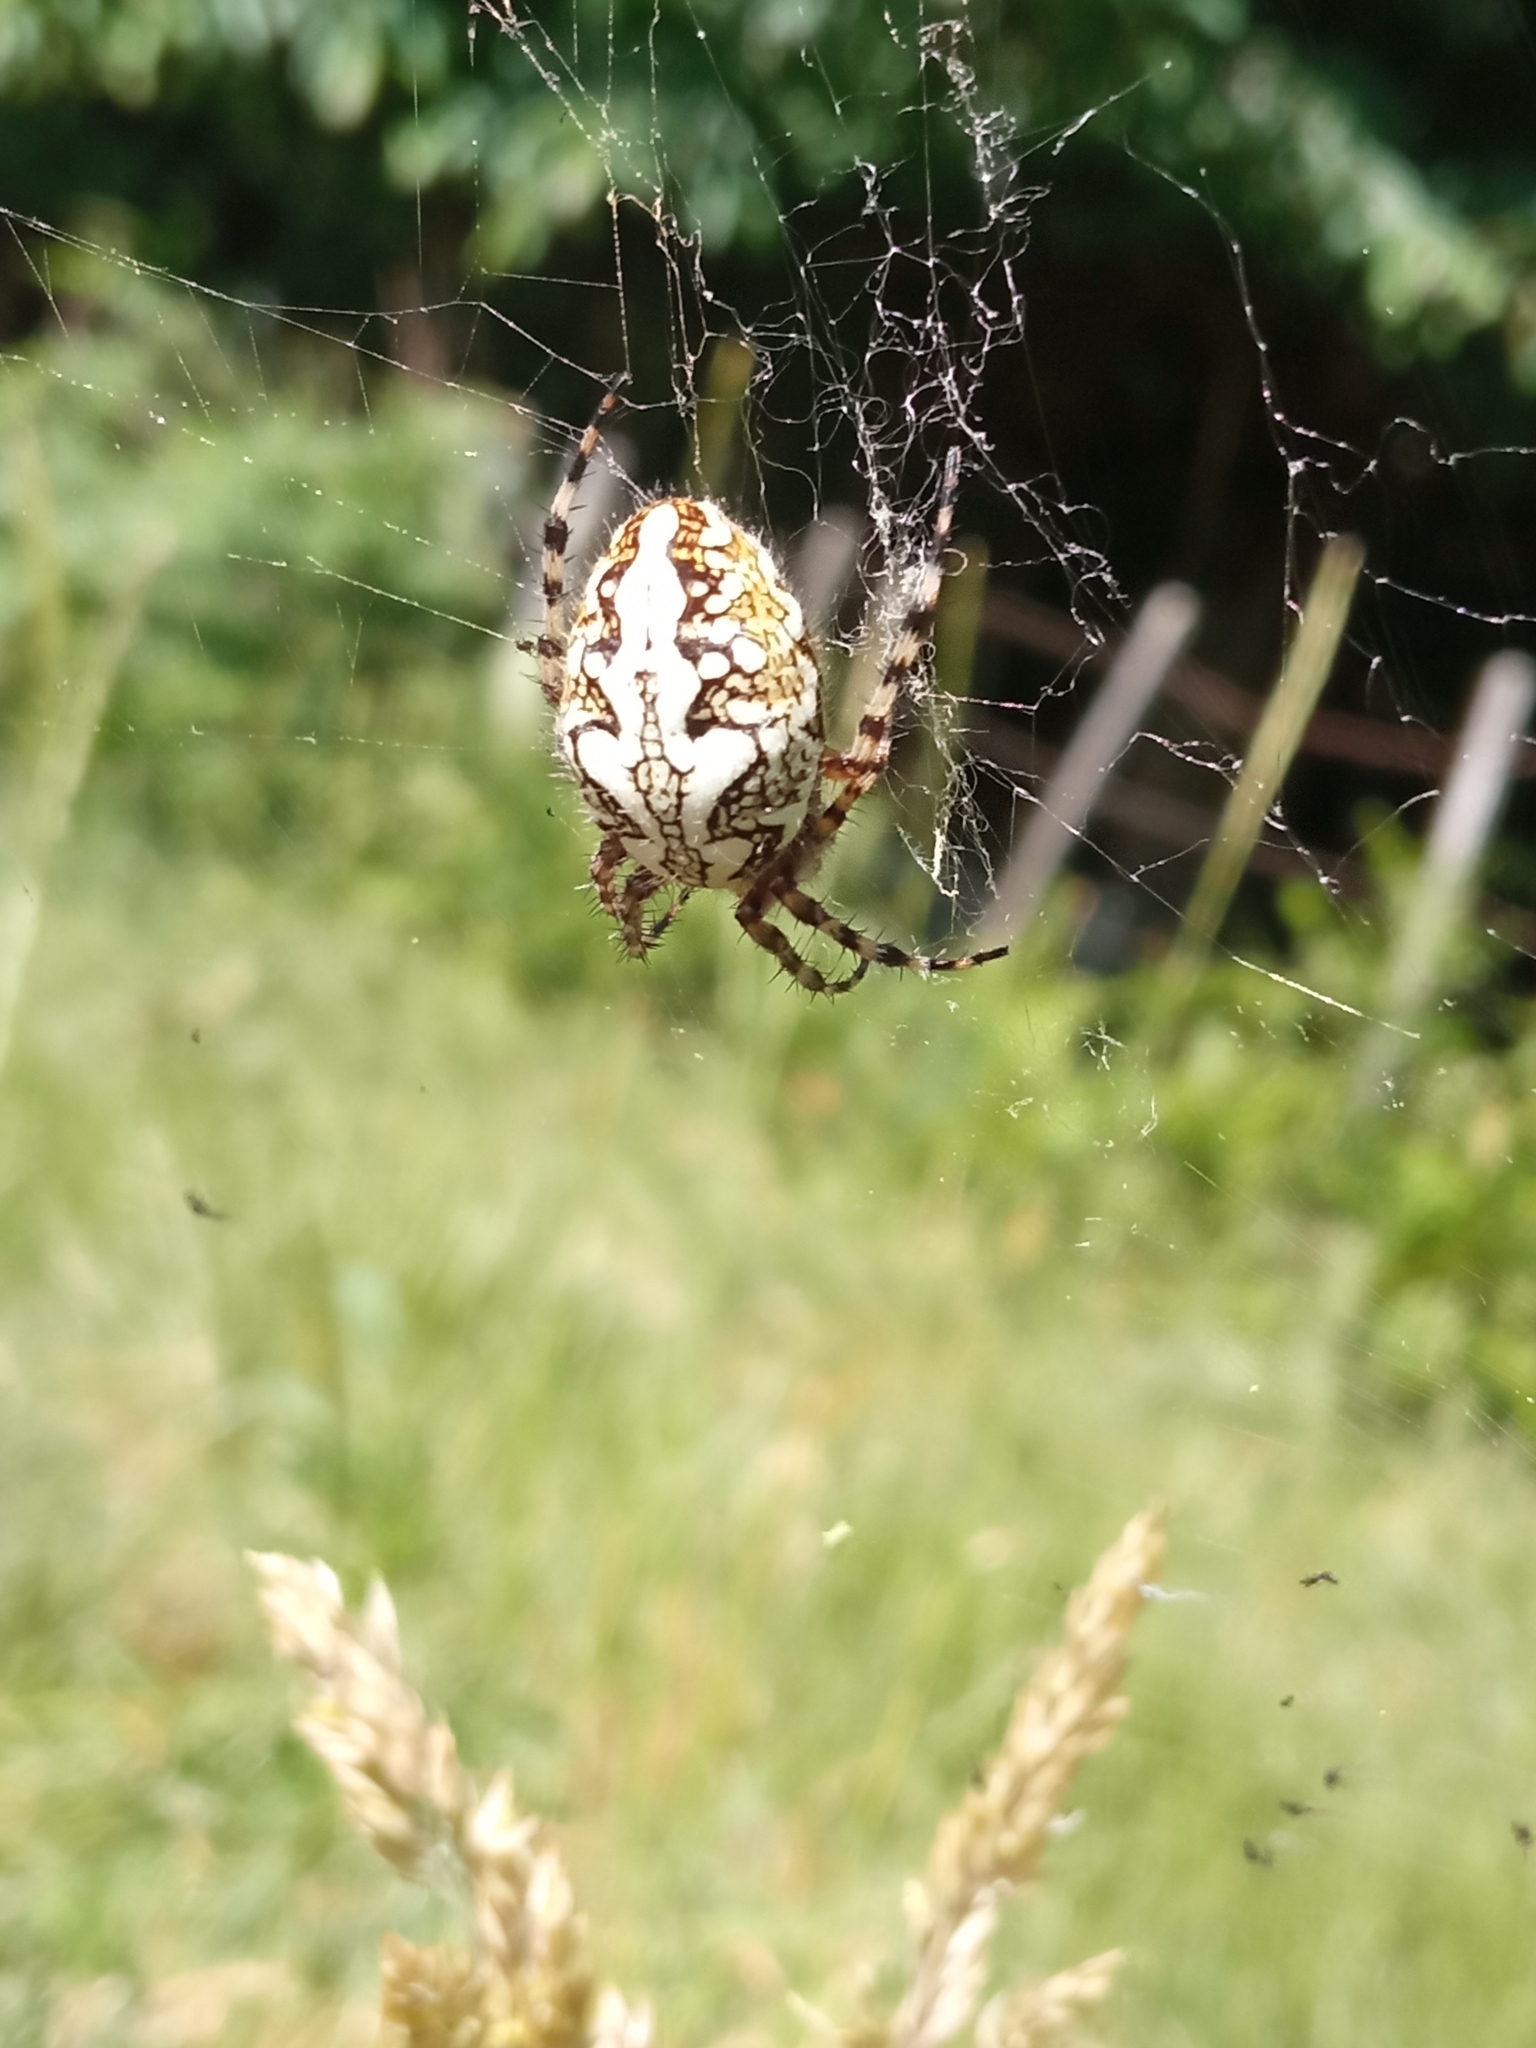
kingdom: Animalia
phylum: Arthropoda
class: Arachnida
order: Araneae
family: Araneidae
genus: Aculepeira
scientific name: Aculepeira ceropegia
